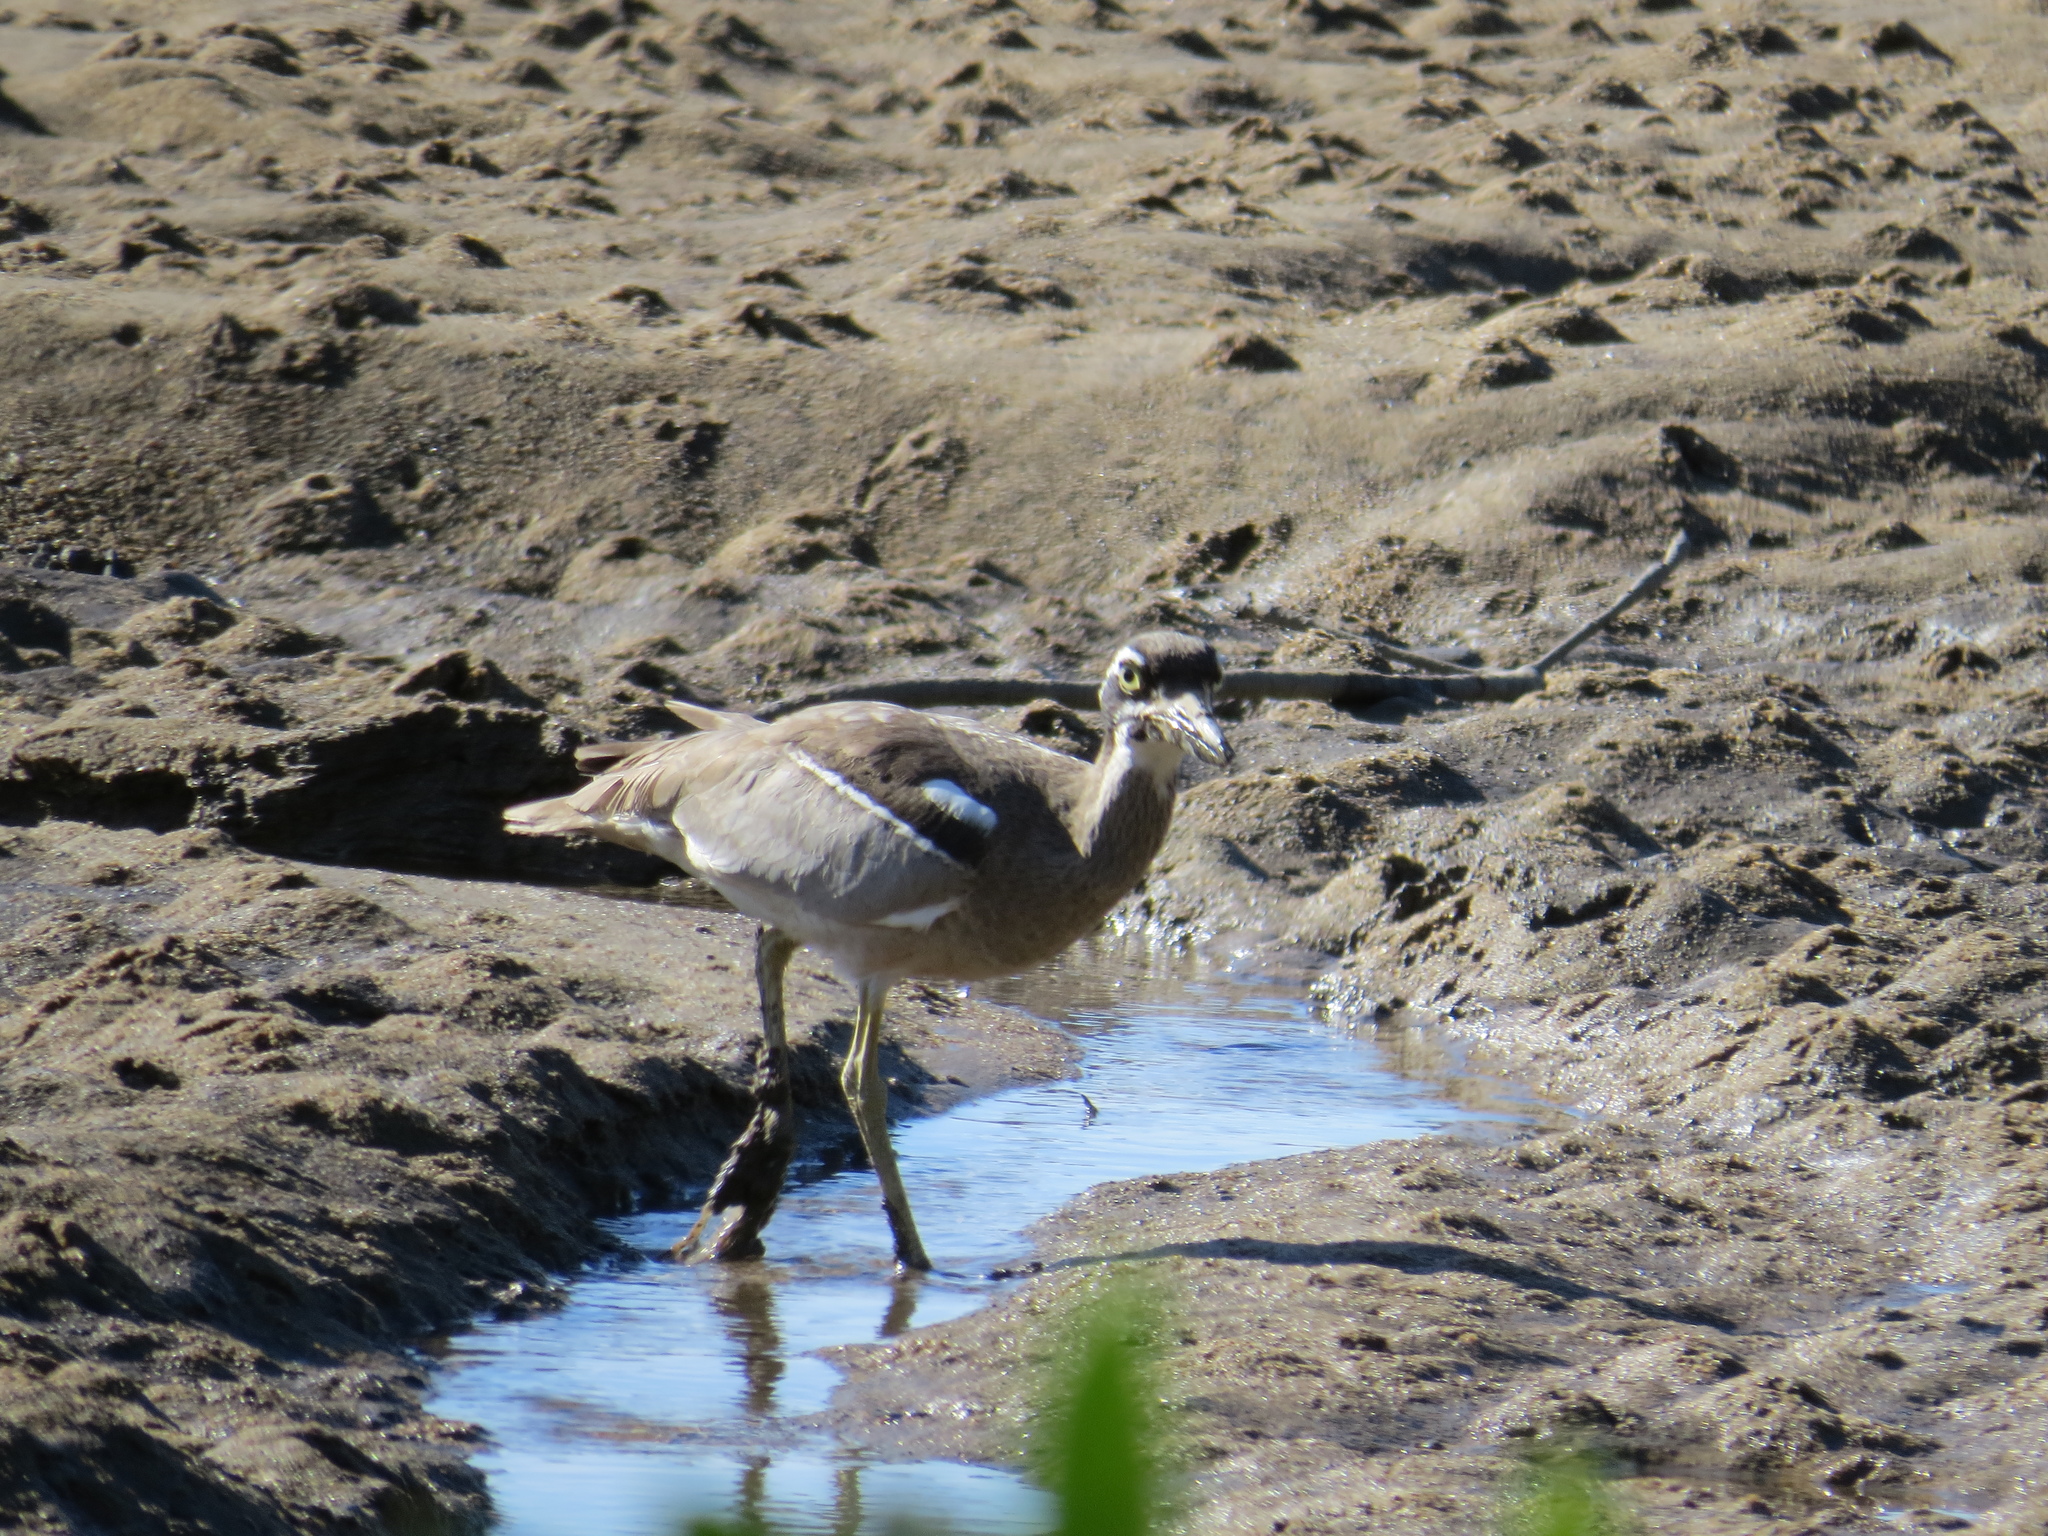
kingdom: Animalia
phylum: Chordata
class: Aves
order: Charadriiformes
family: Burhinidae
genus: Esacus
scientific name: Esacus magnirostris
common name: Beach stone-curlew
